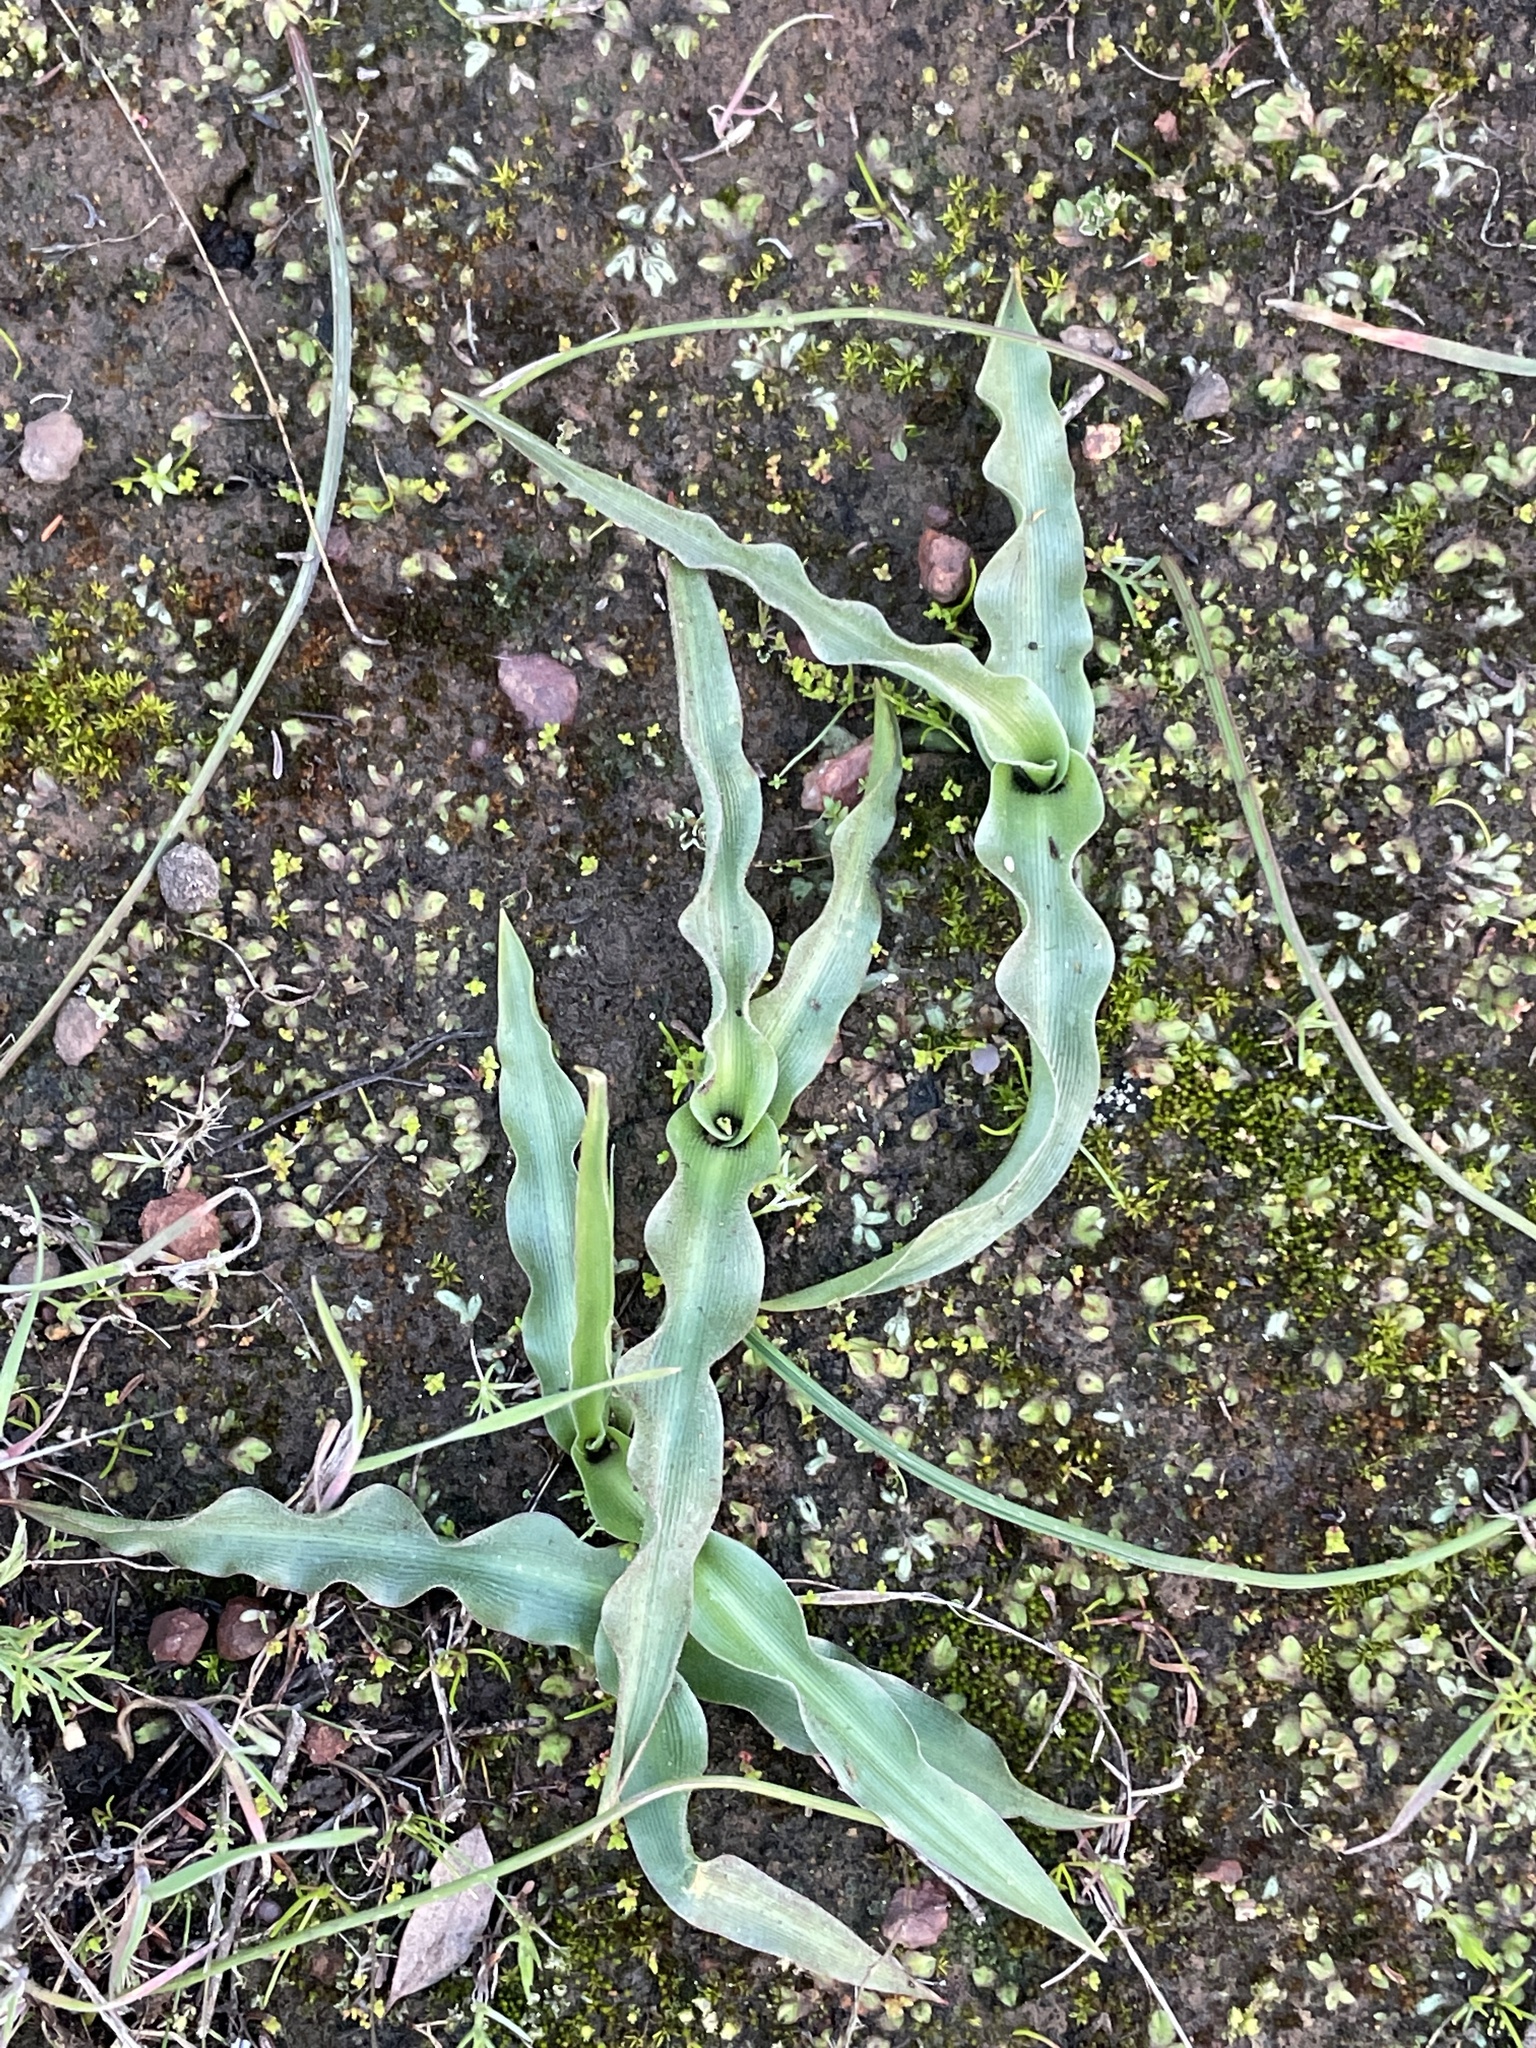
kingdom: Plantae
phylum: Tracheophyta
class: Liliopsida
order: Asparagales
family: Asparagaceae
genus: Hooveria
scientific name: Hooveria parviflora
